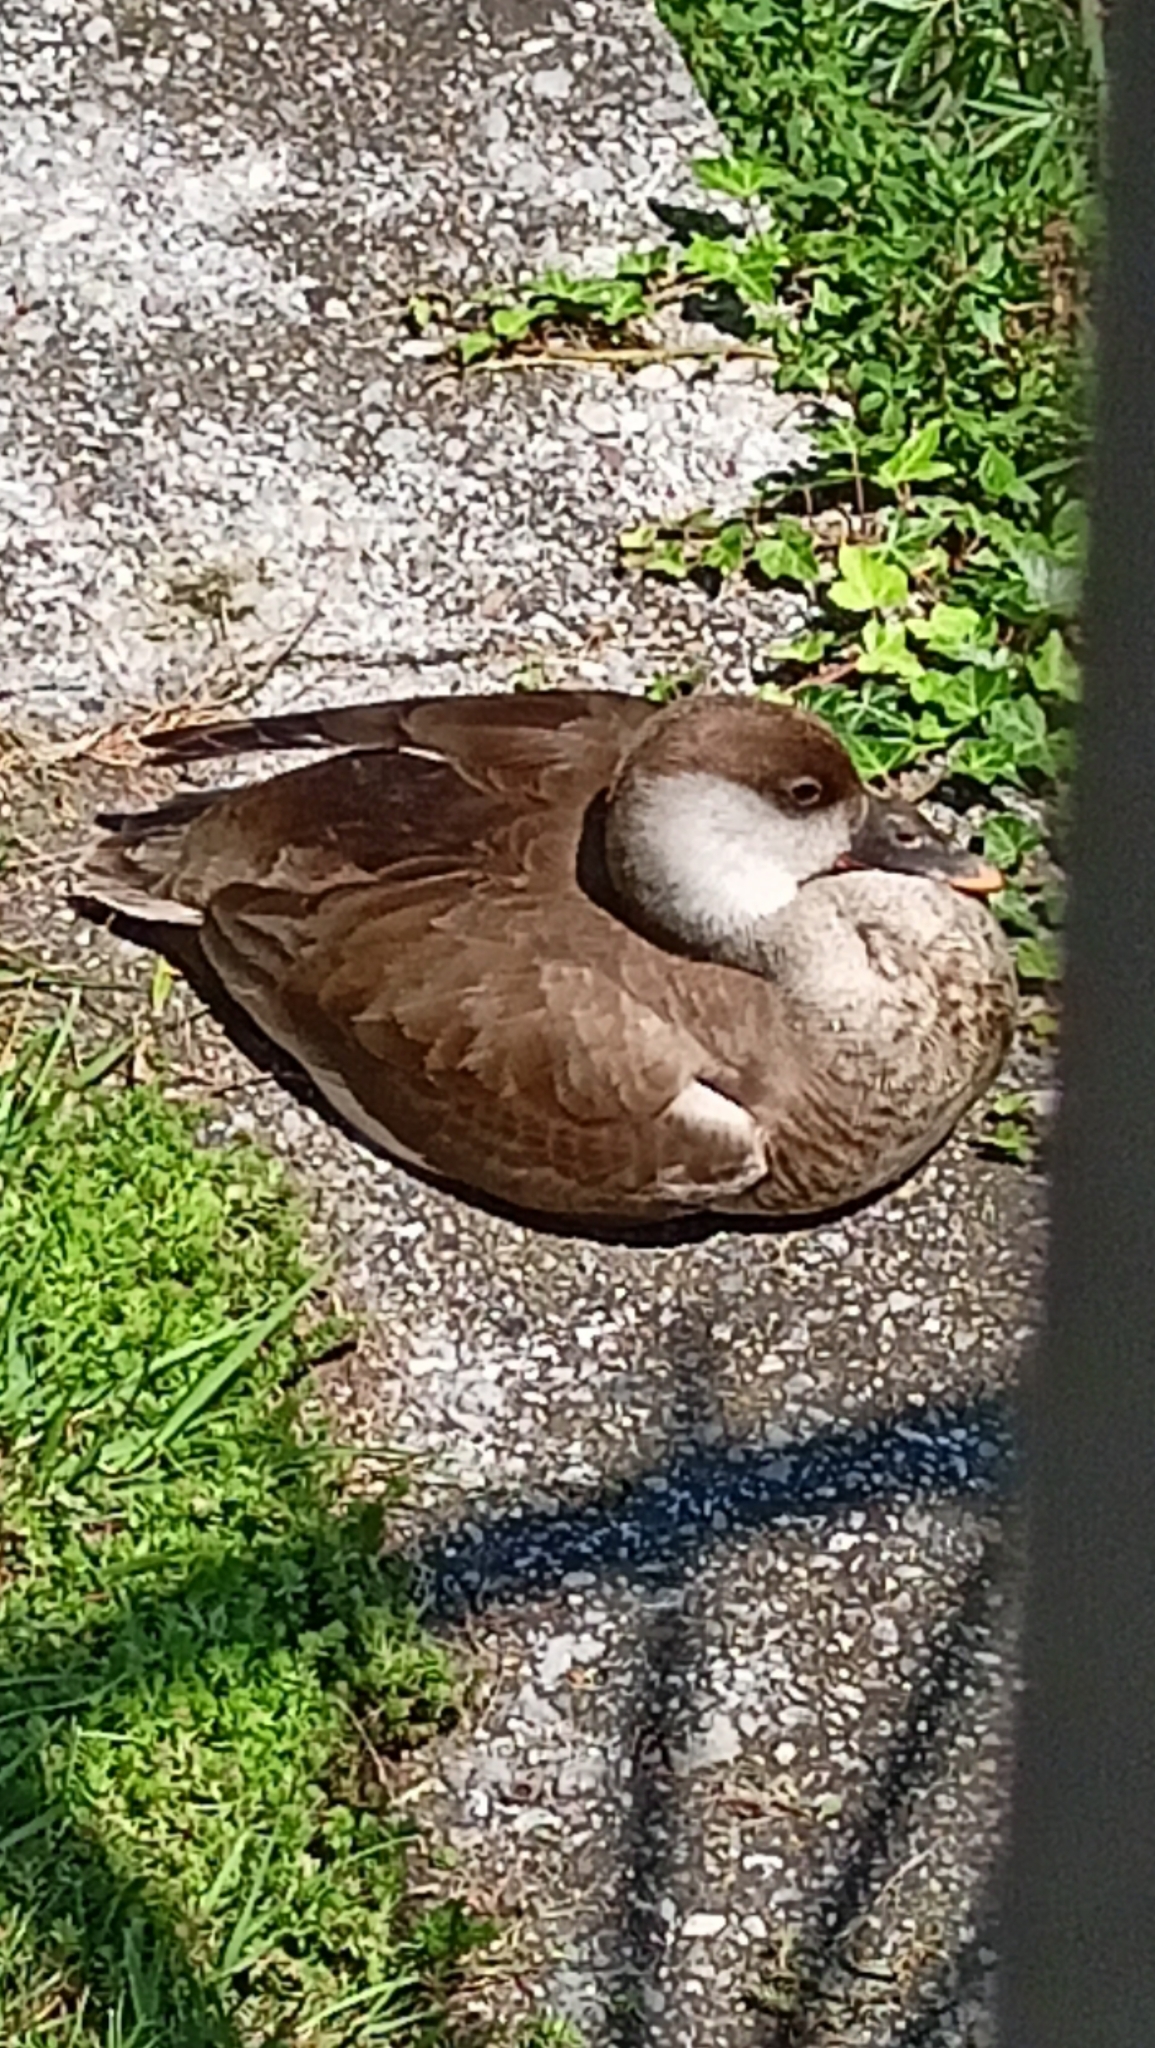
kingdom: Animalia
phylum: Chordata
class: Aves
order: Anseriformes
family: Anatidae
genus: Netta
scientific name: Netta rufina
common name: Red-crested pochard
